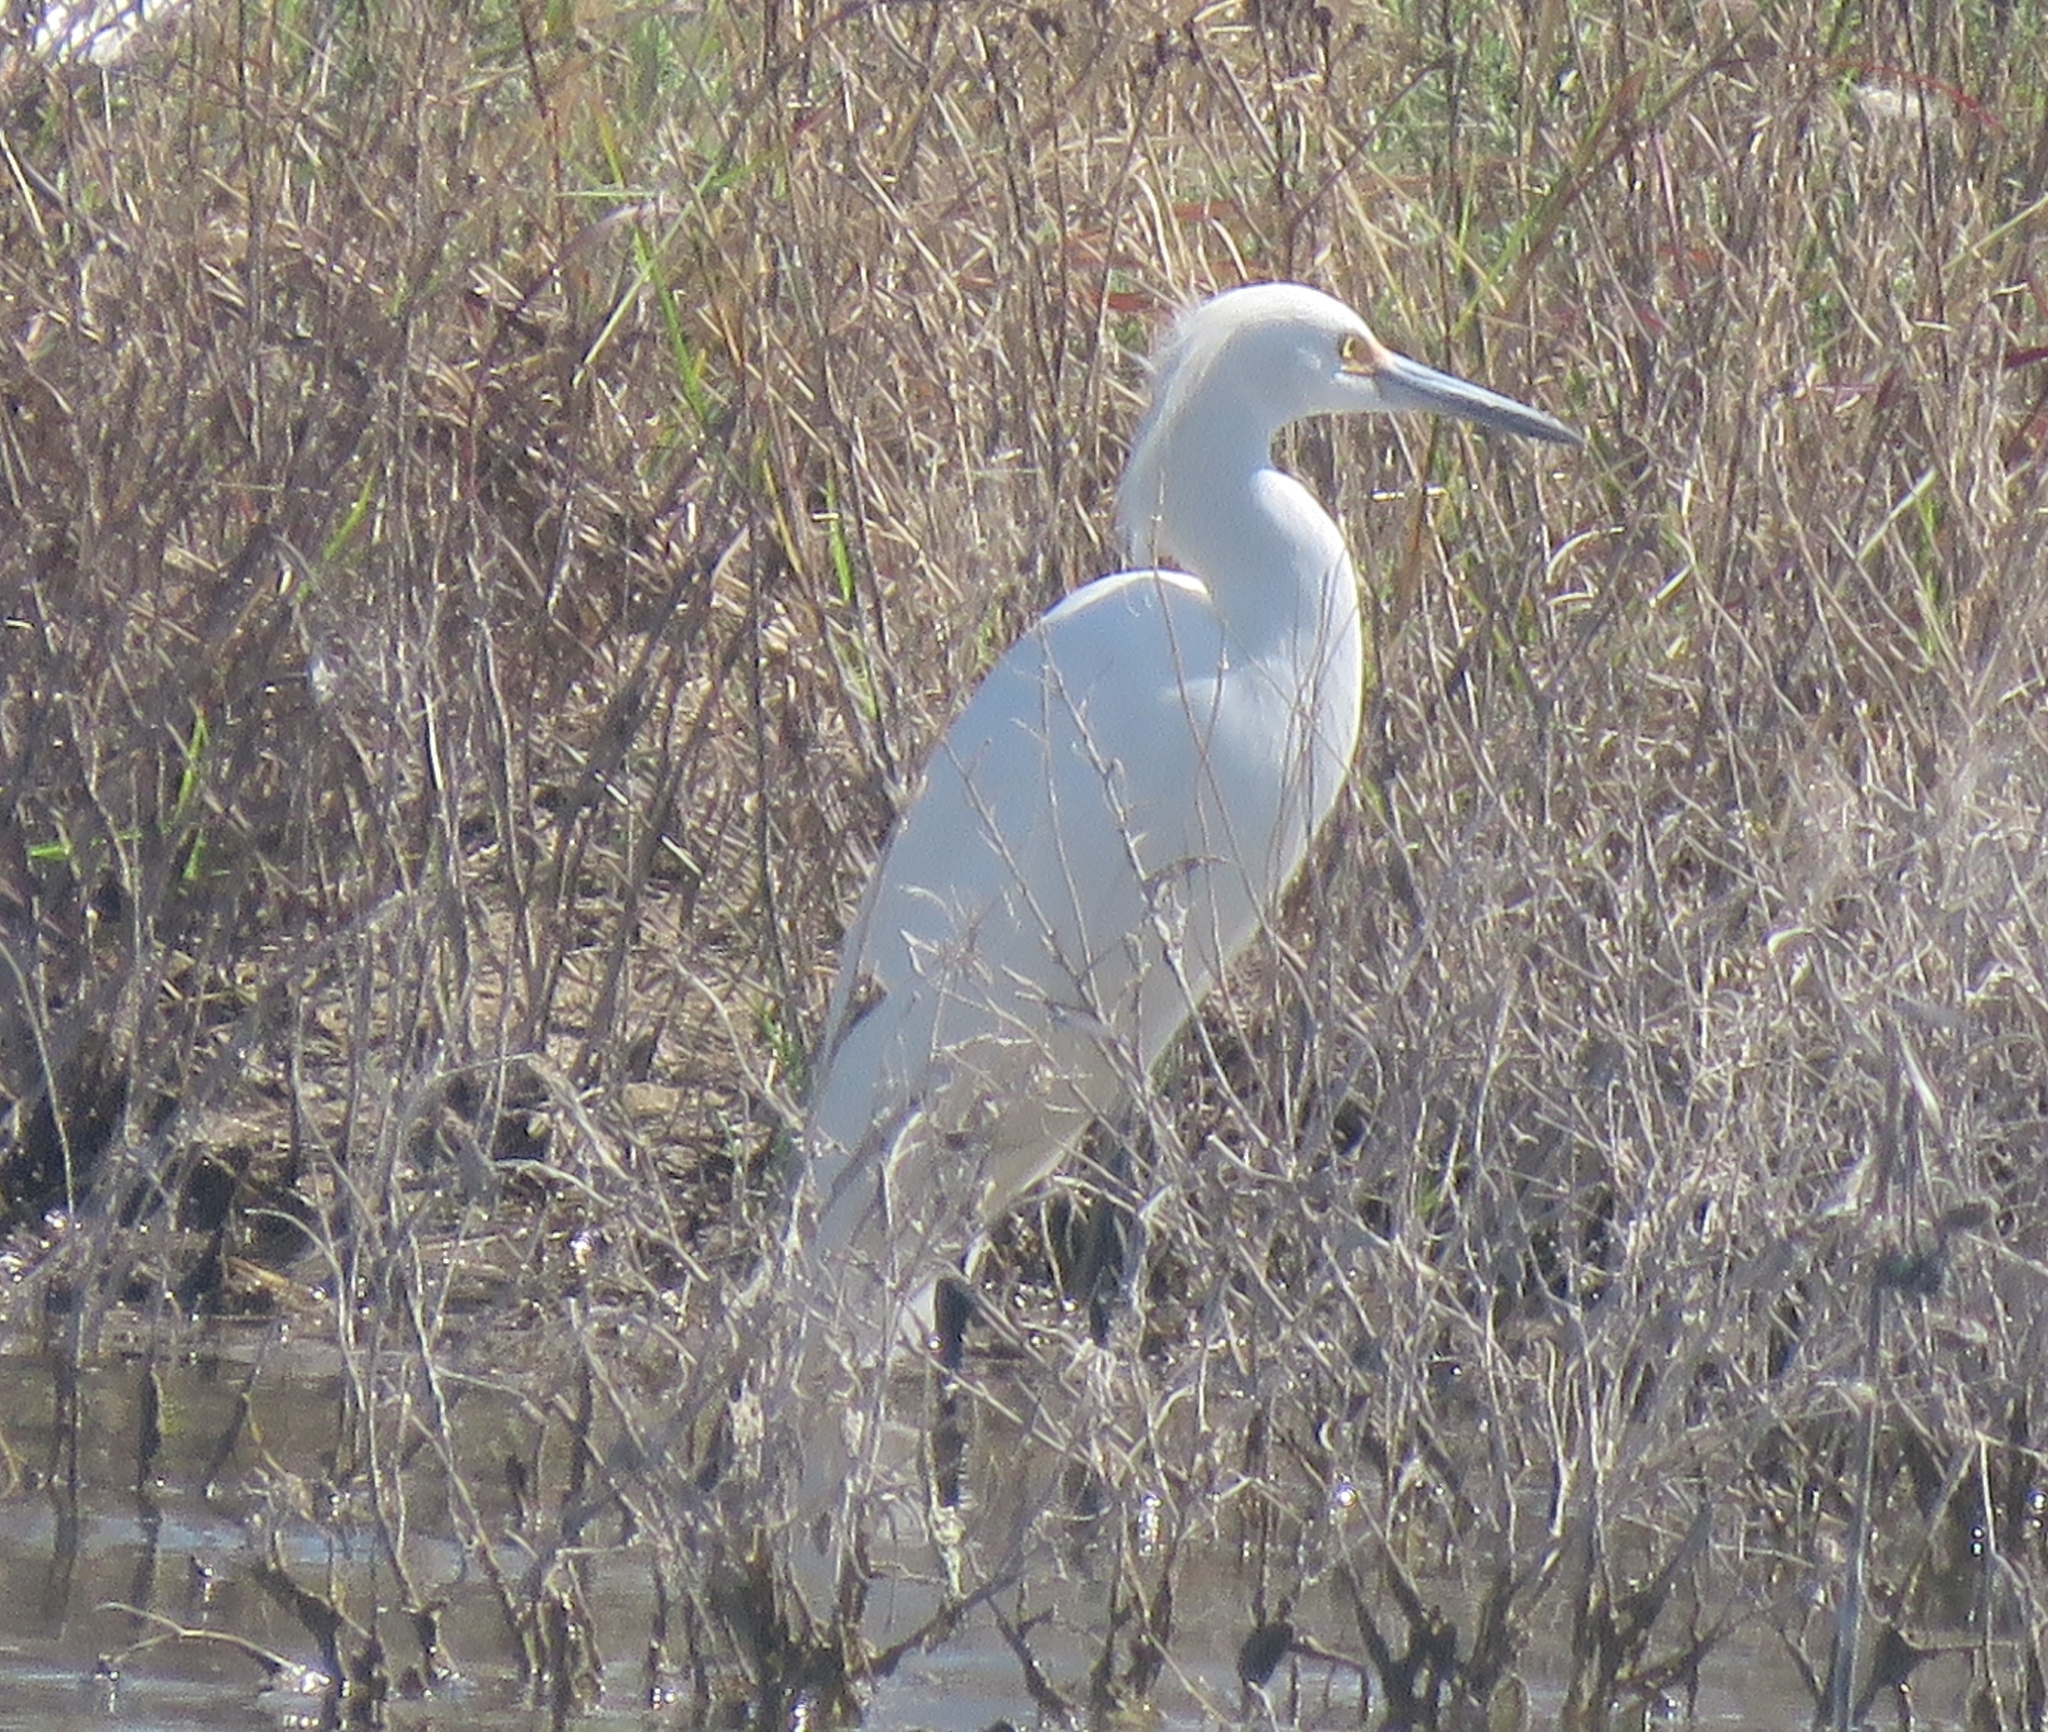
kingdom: Animalia
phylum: Chordata
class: Aves
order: Pelecaniformes
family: Ardeidae
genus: Egretta
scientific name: Egretta thula
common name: Snowy egret
